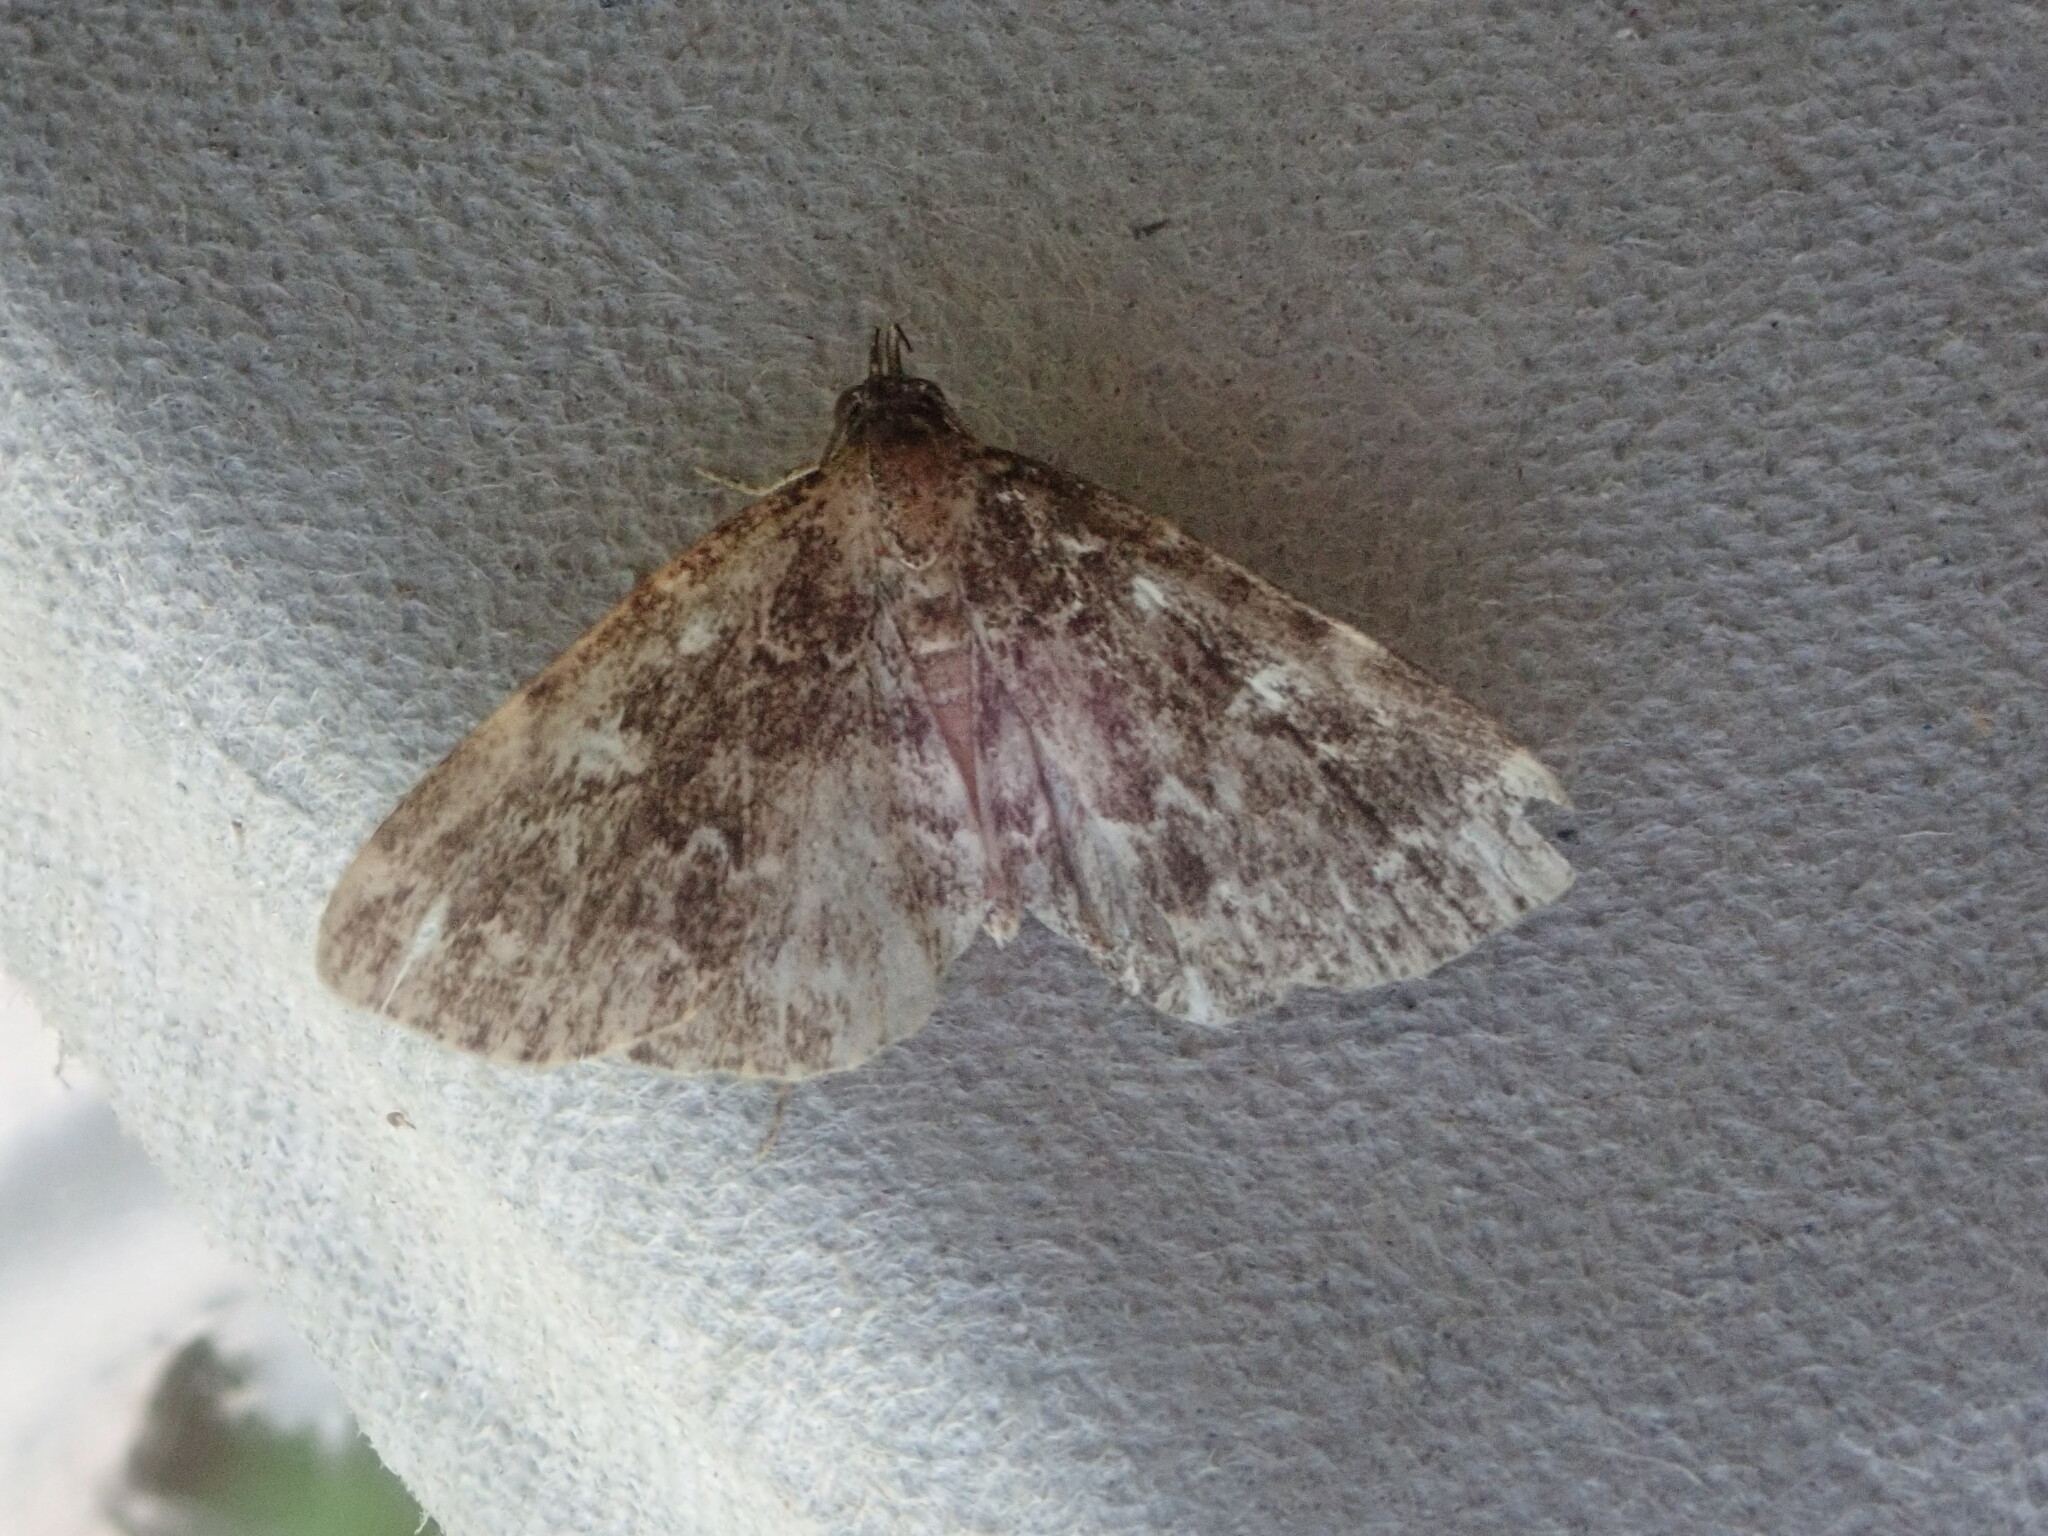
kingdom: Animalia
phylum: Arthropoda
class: Insecta
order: Lepidoptera
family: Erebidae
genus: Idia
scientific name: Idia scobialis
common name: Smoky idia moth
